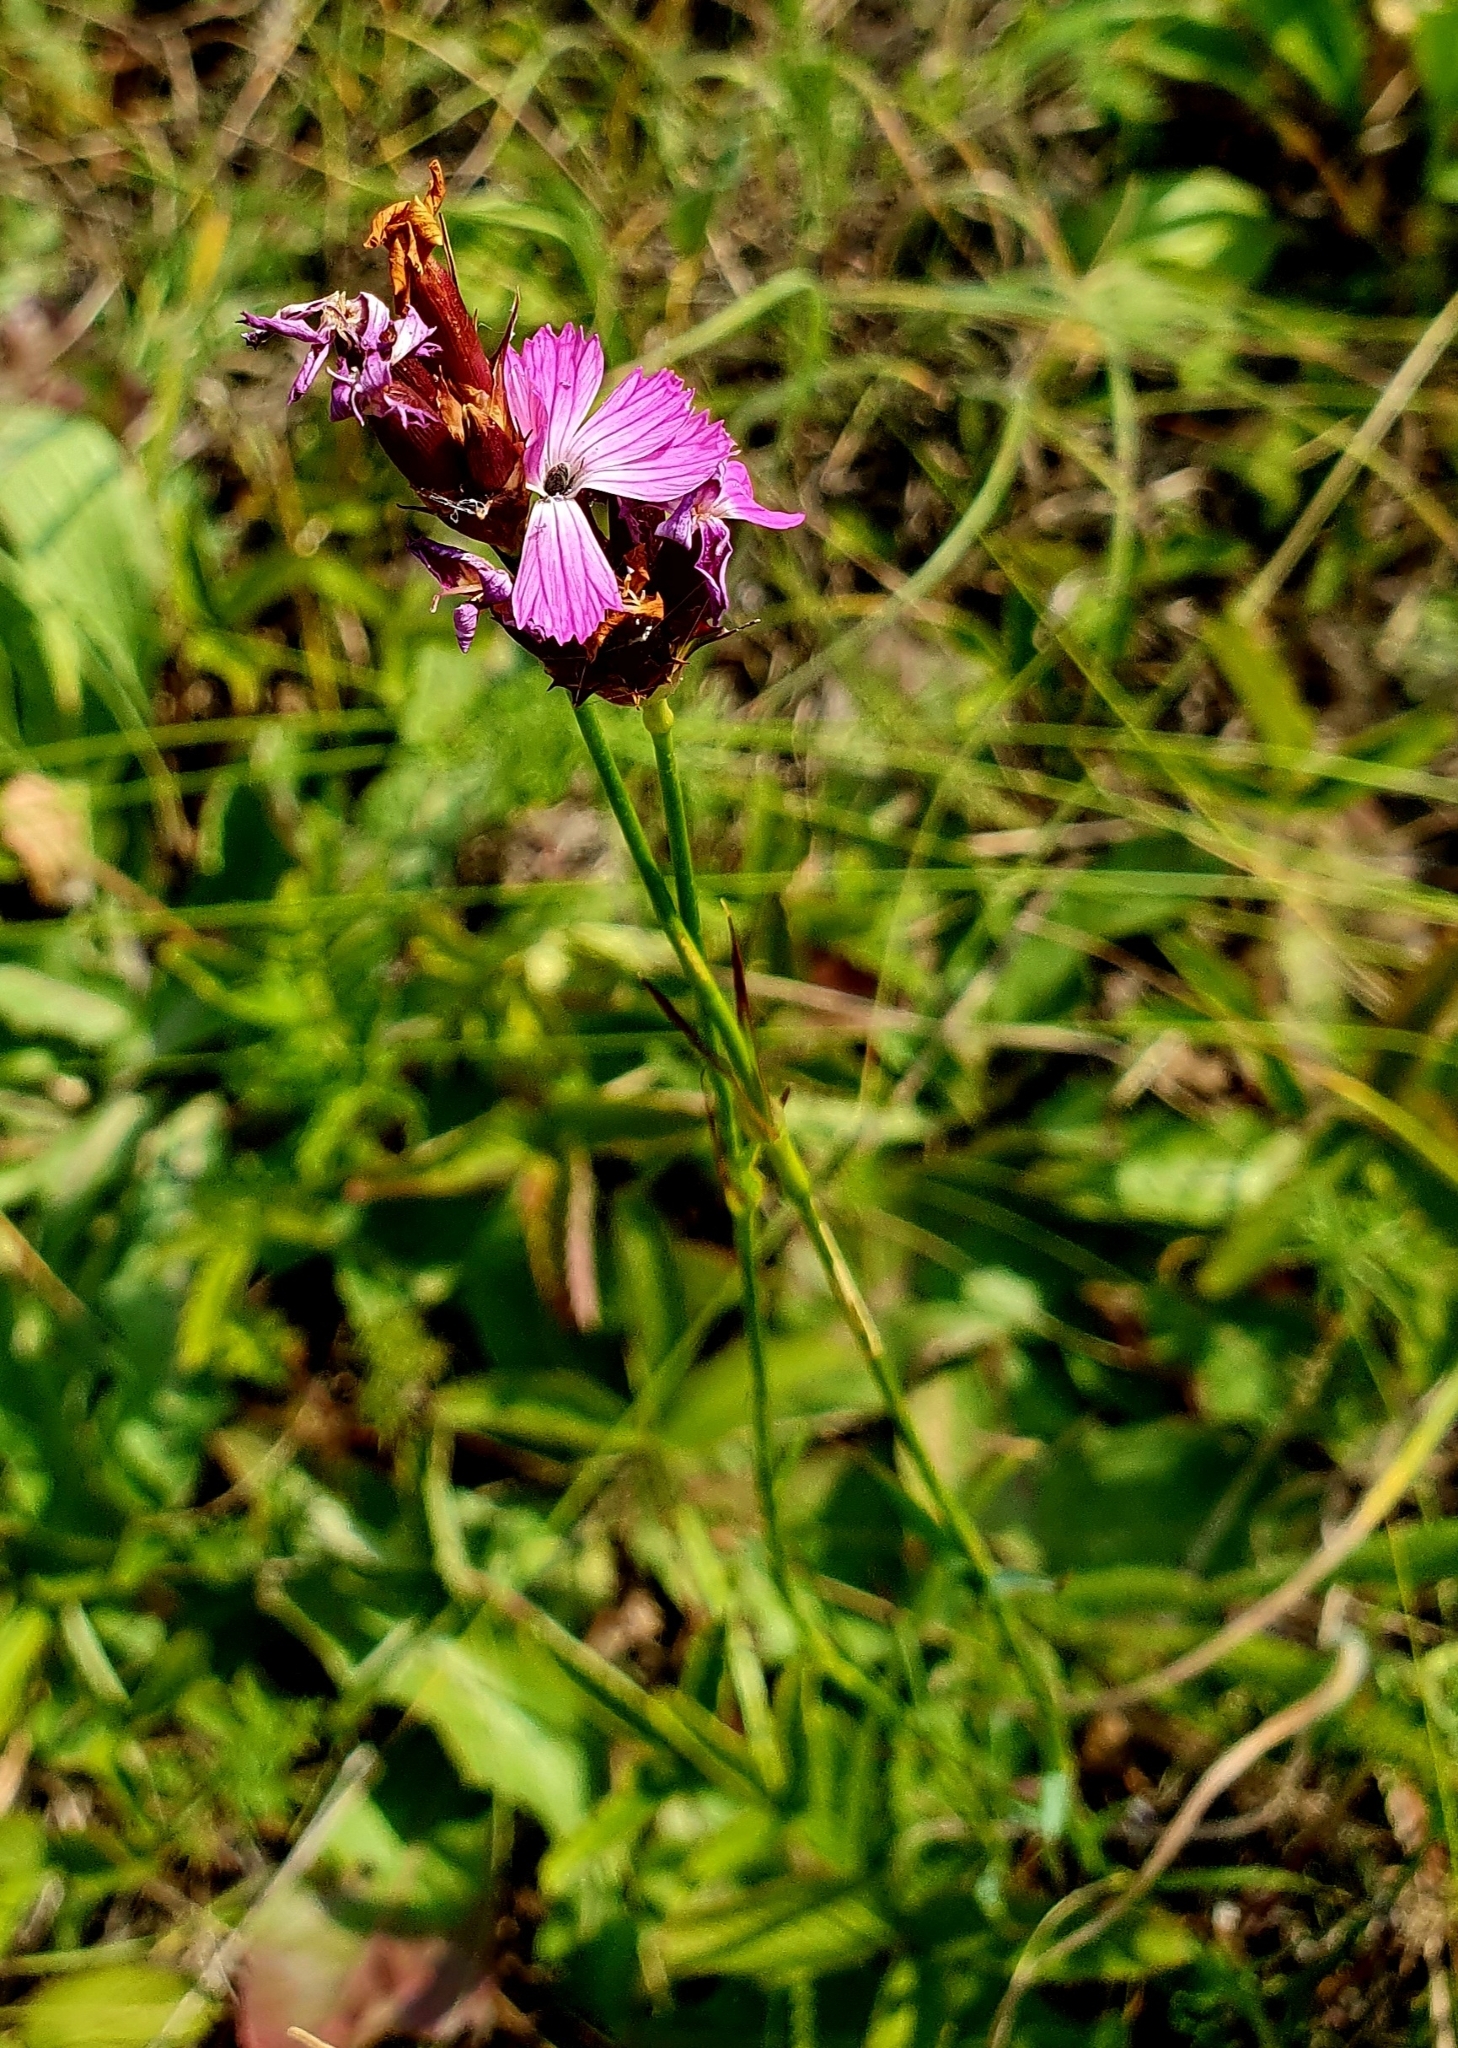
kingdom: Plantae
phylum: Tracheophyta
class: Magnoliopsida
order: Caryophyllales
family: Caryophyllaceae
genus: Dianthus
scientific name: Dianthus capitatus
